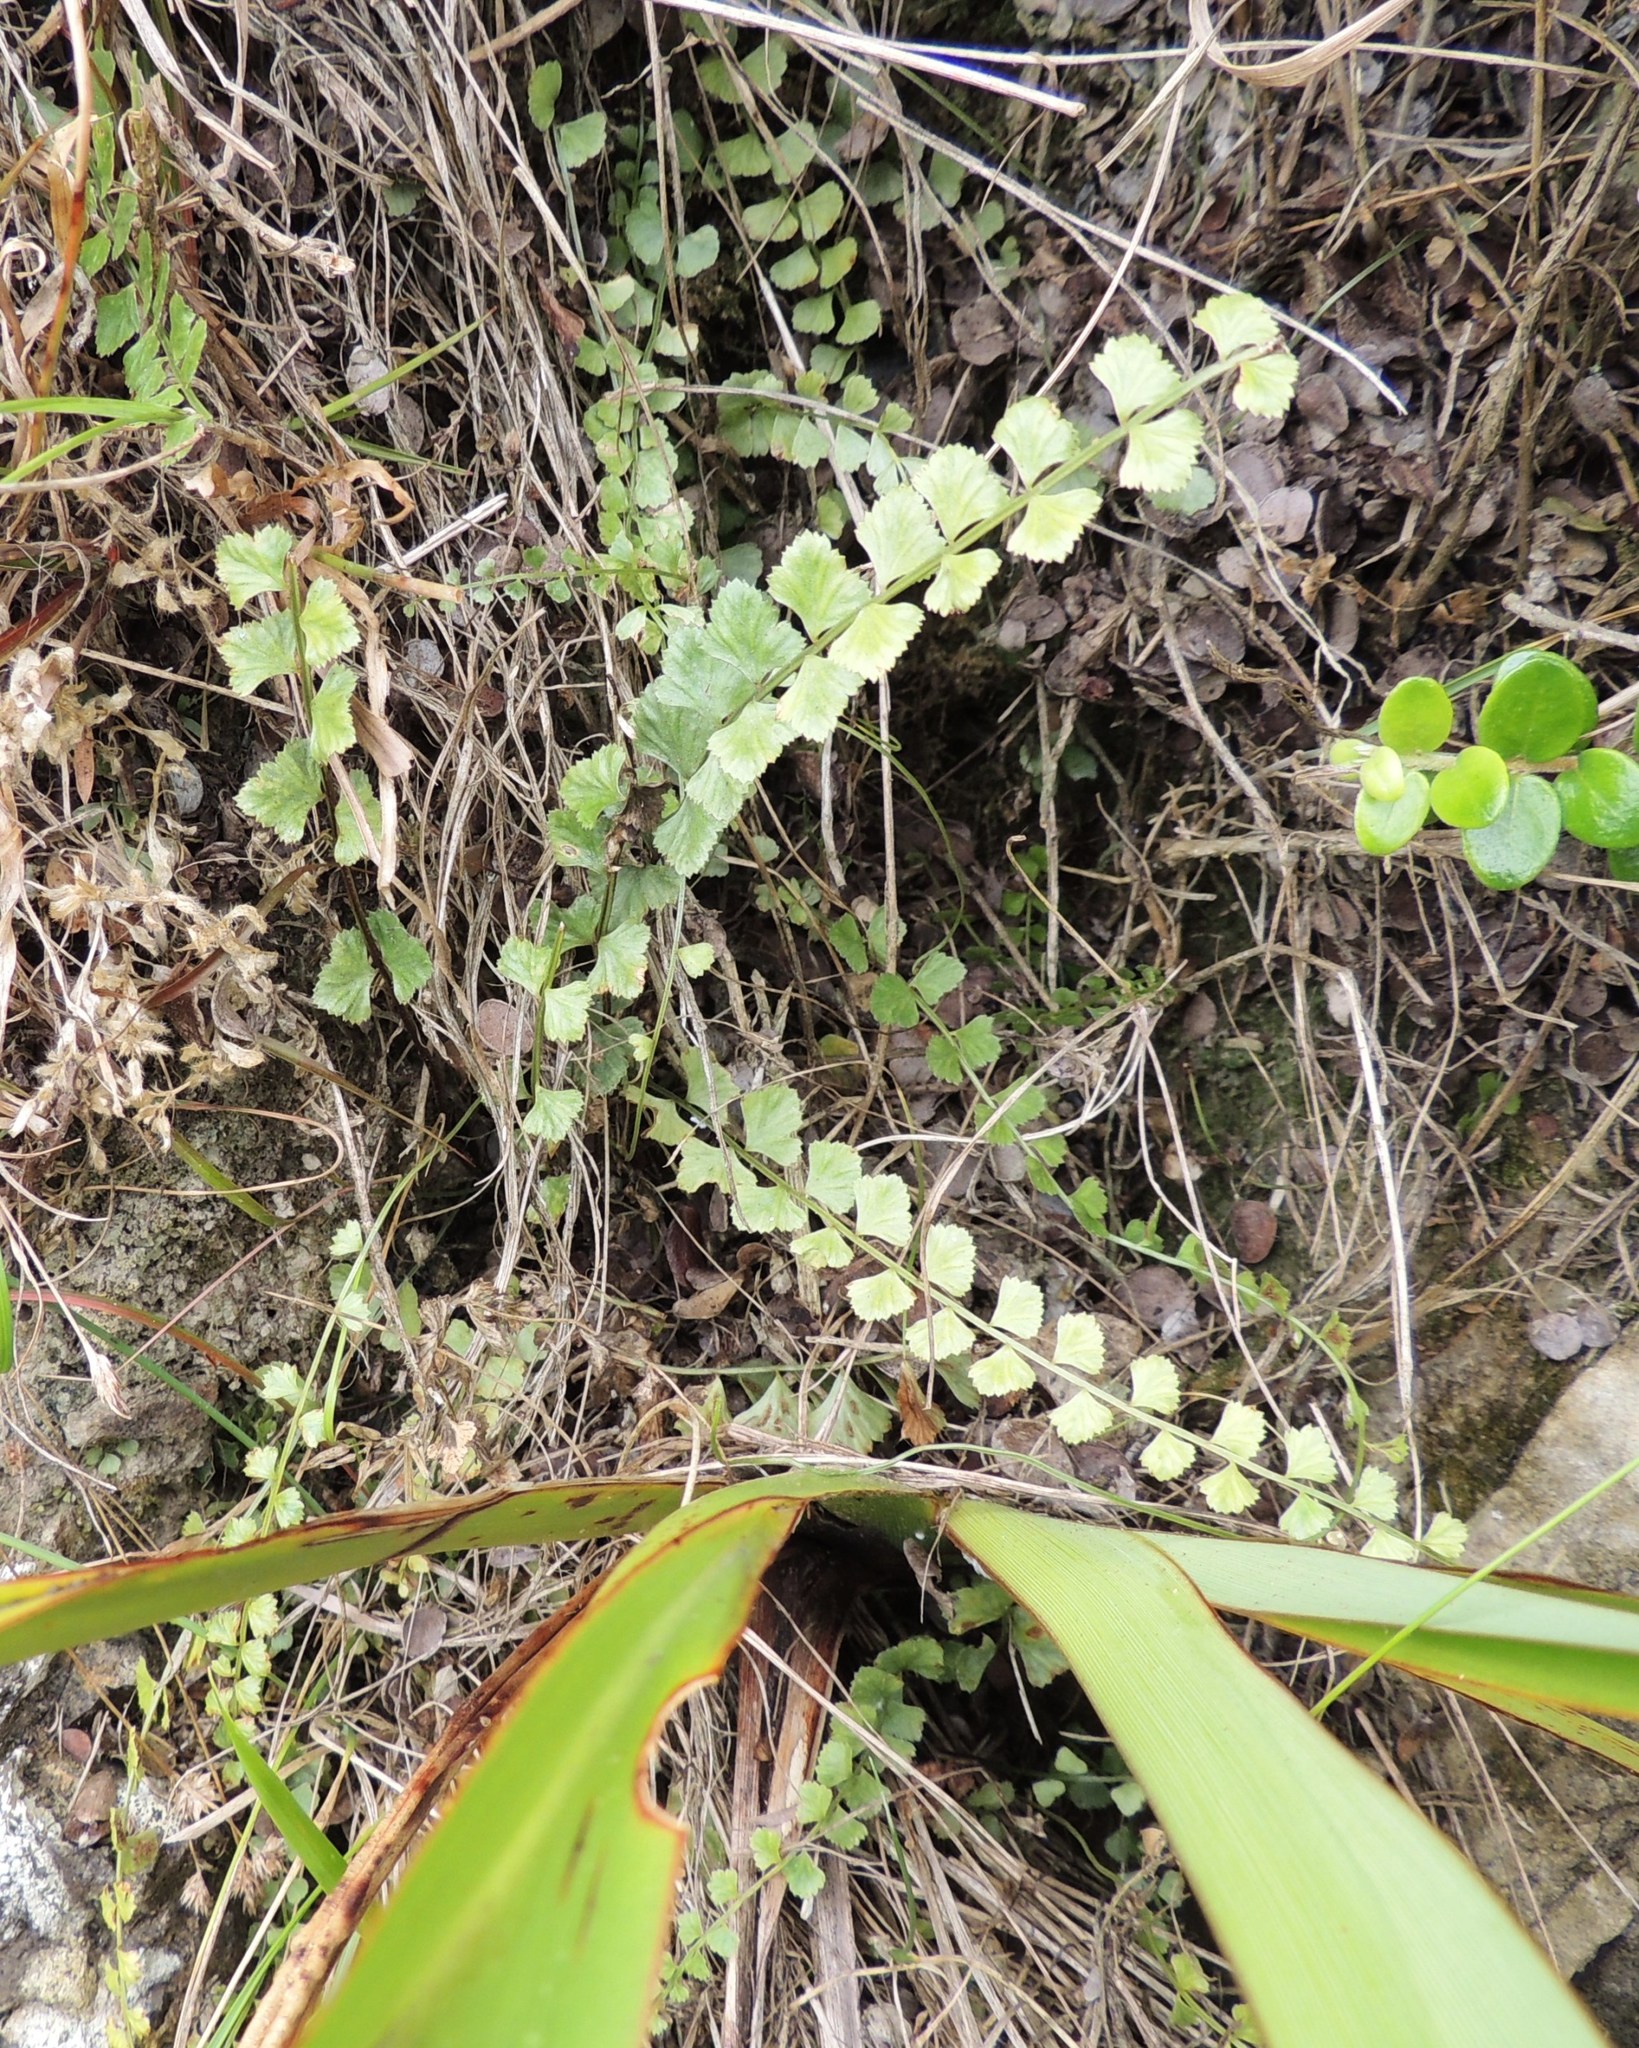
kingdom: Plantae
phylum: Tracheophyta
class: Polypodiopsida
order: Polypodiales
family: Aspleniaceae
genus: Asplenium
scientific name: Asplenium flabellifolium
